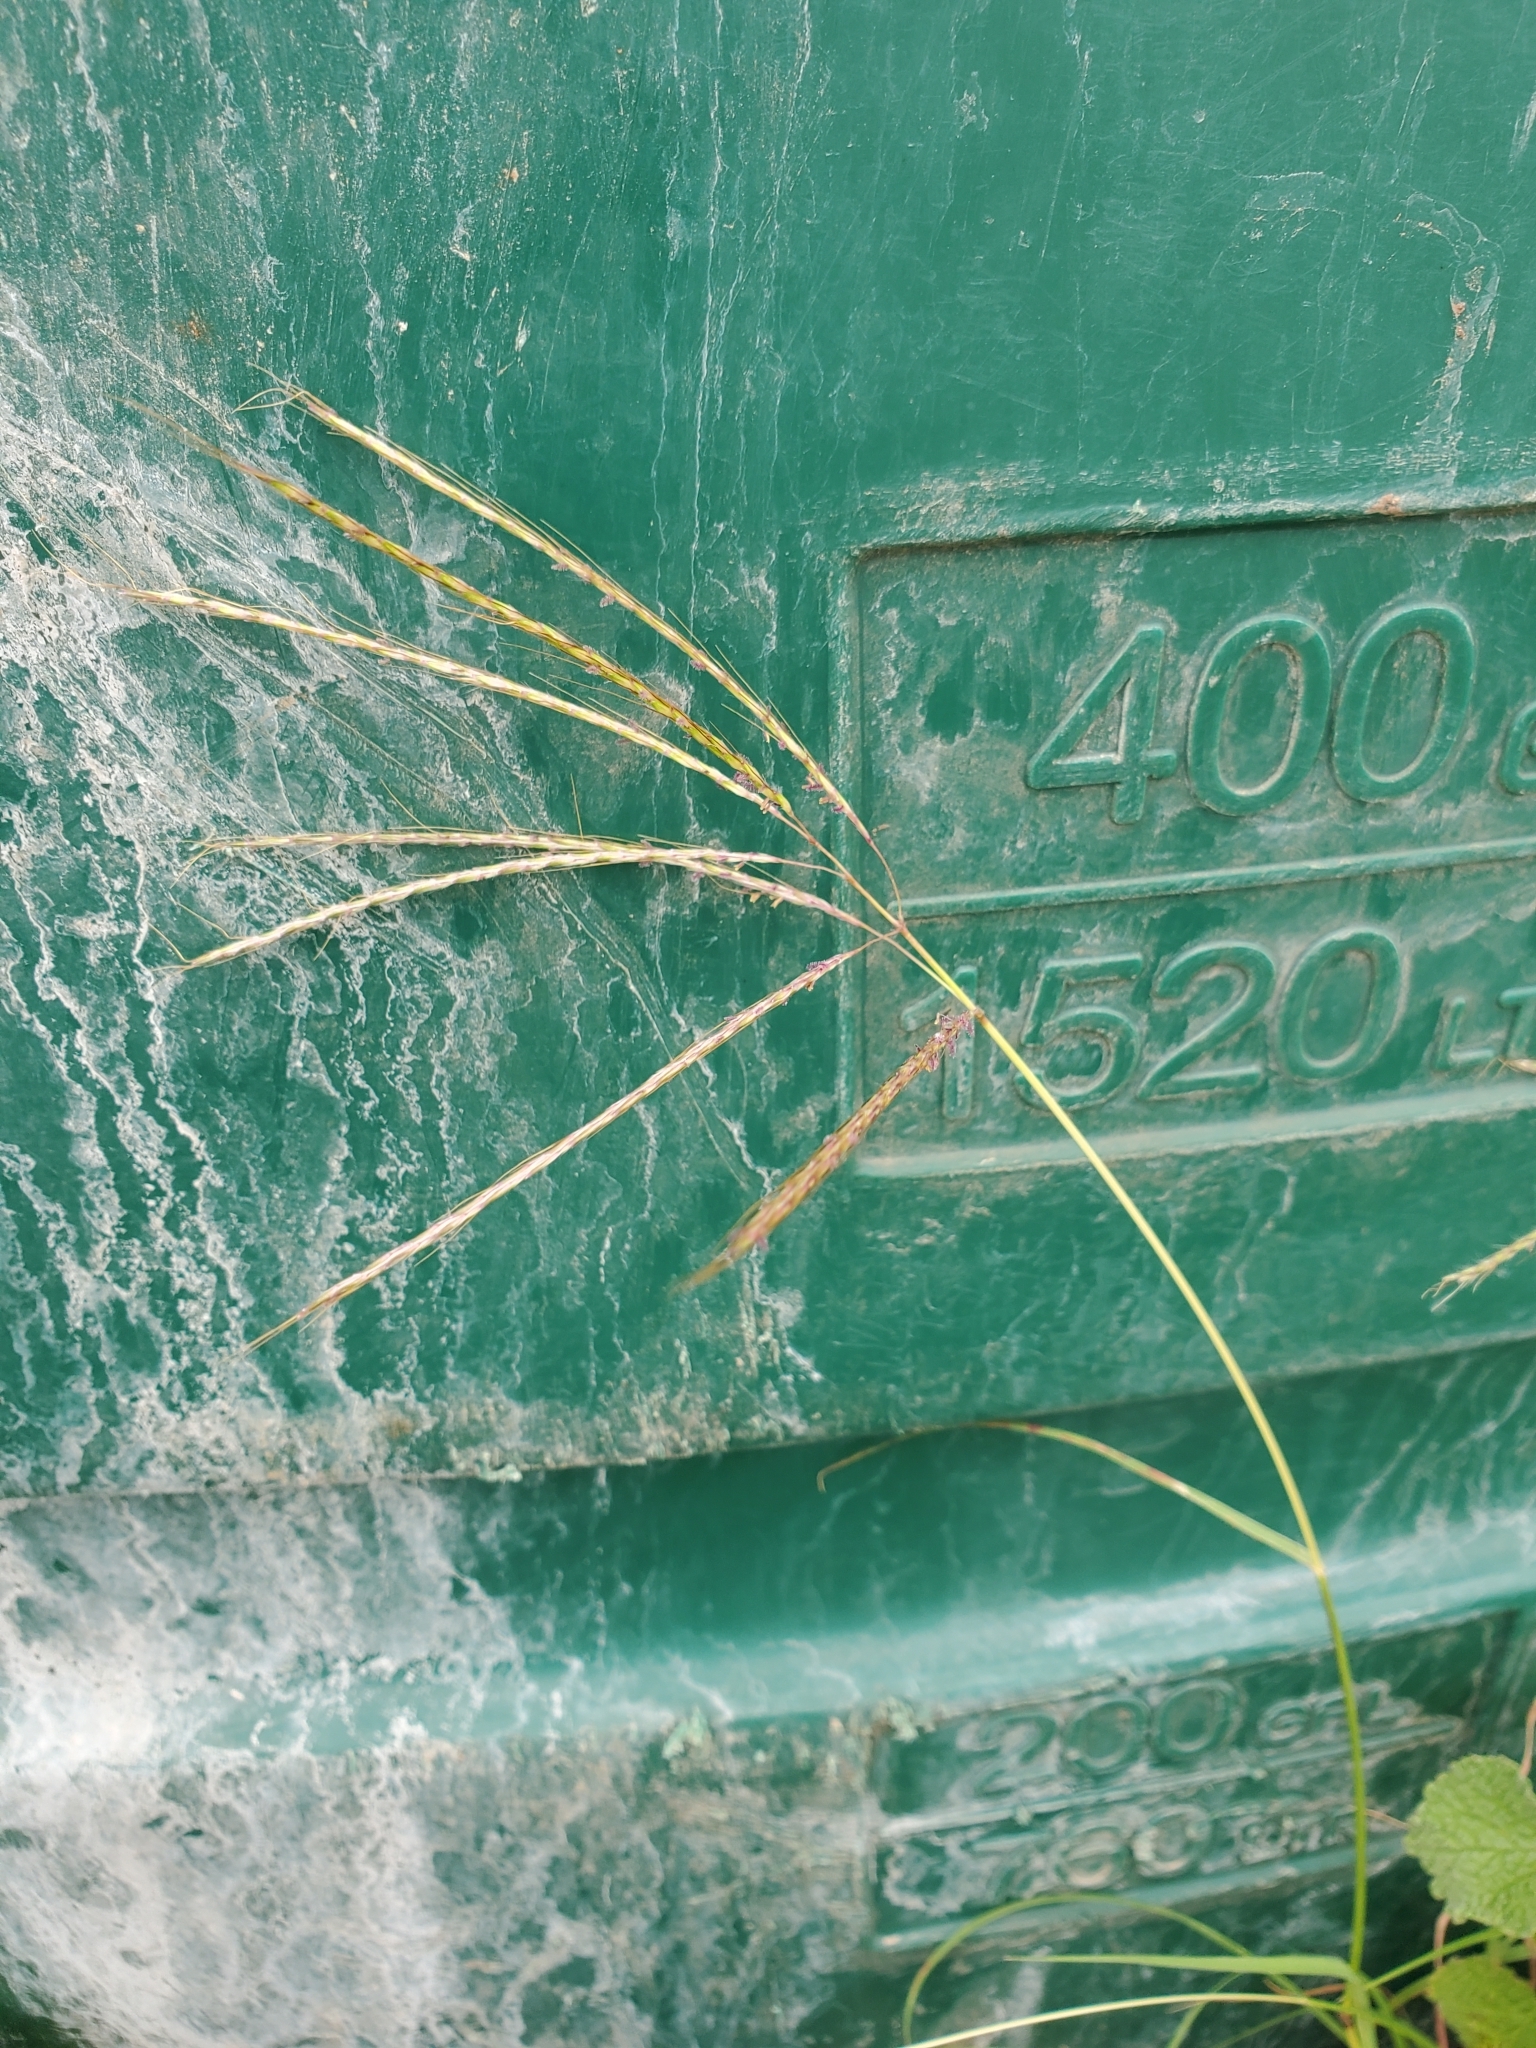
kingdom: Plantae
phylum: Tracheophyta
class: Liliopsida
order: Poales
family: Poaceae
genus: Bothriochloa
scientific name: Bothriochloa ischaemum
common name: Yellow bluestem
